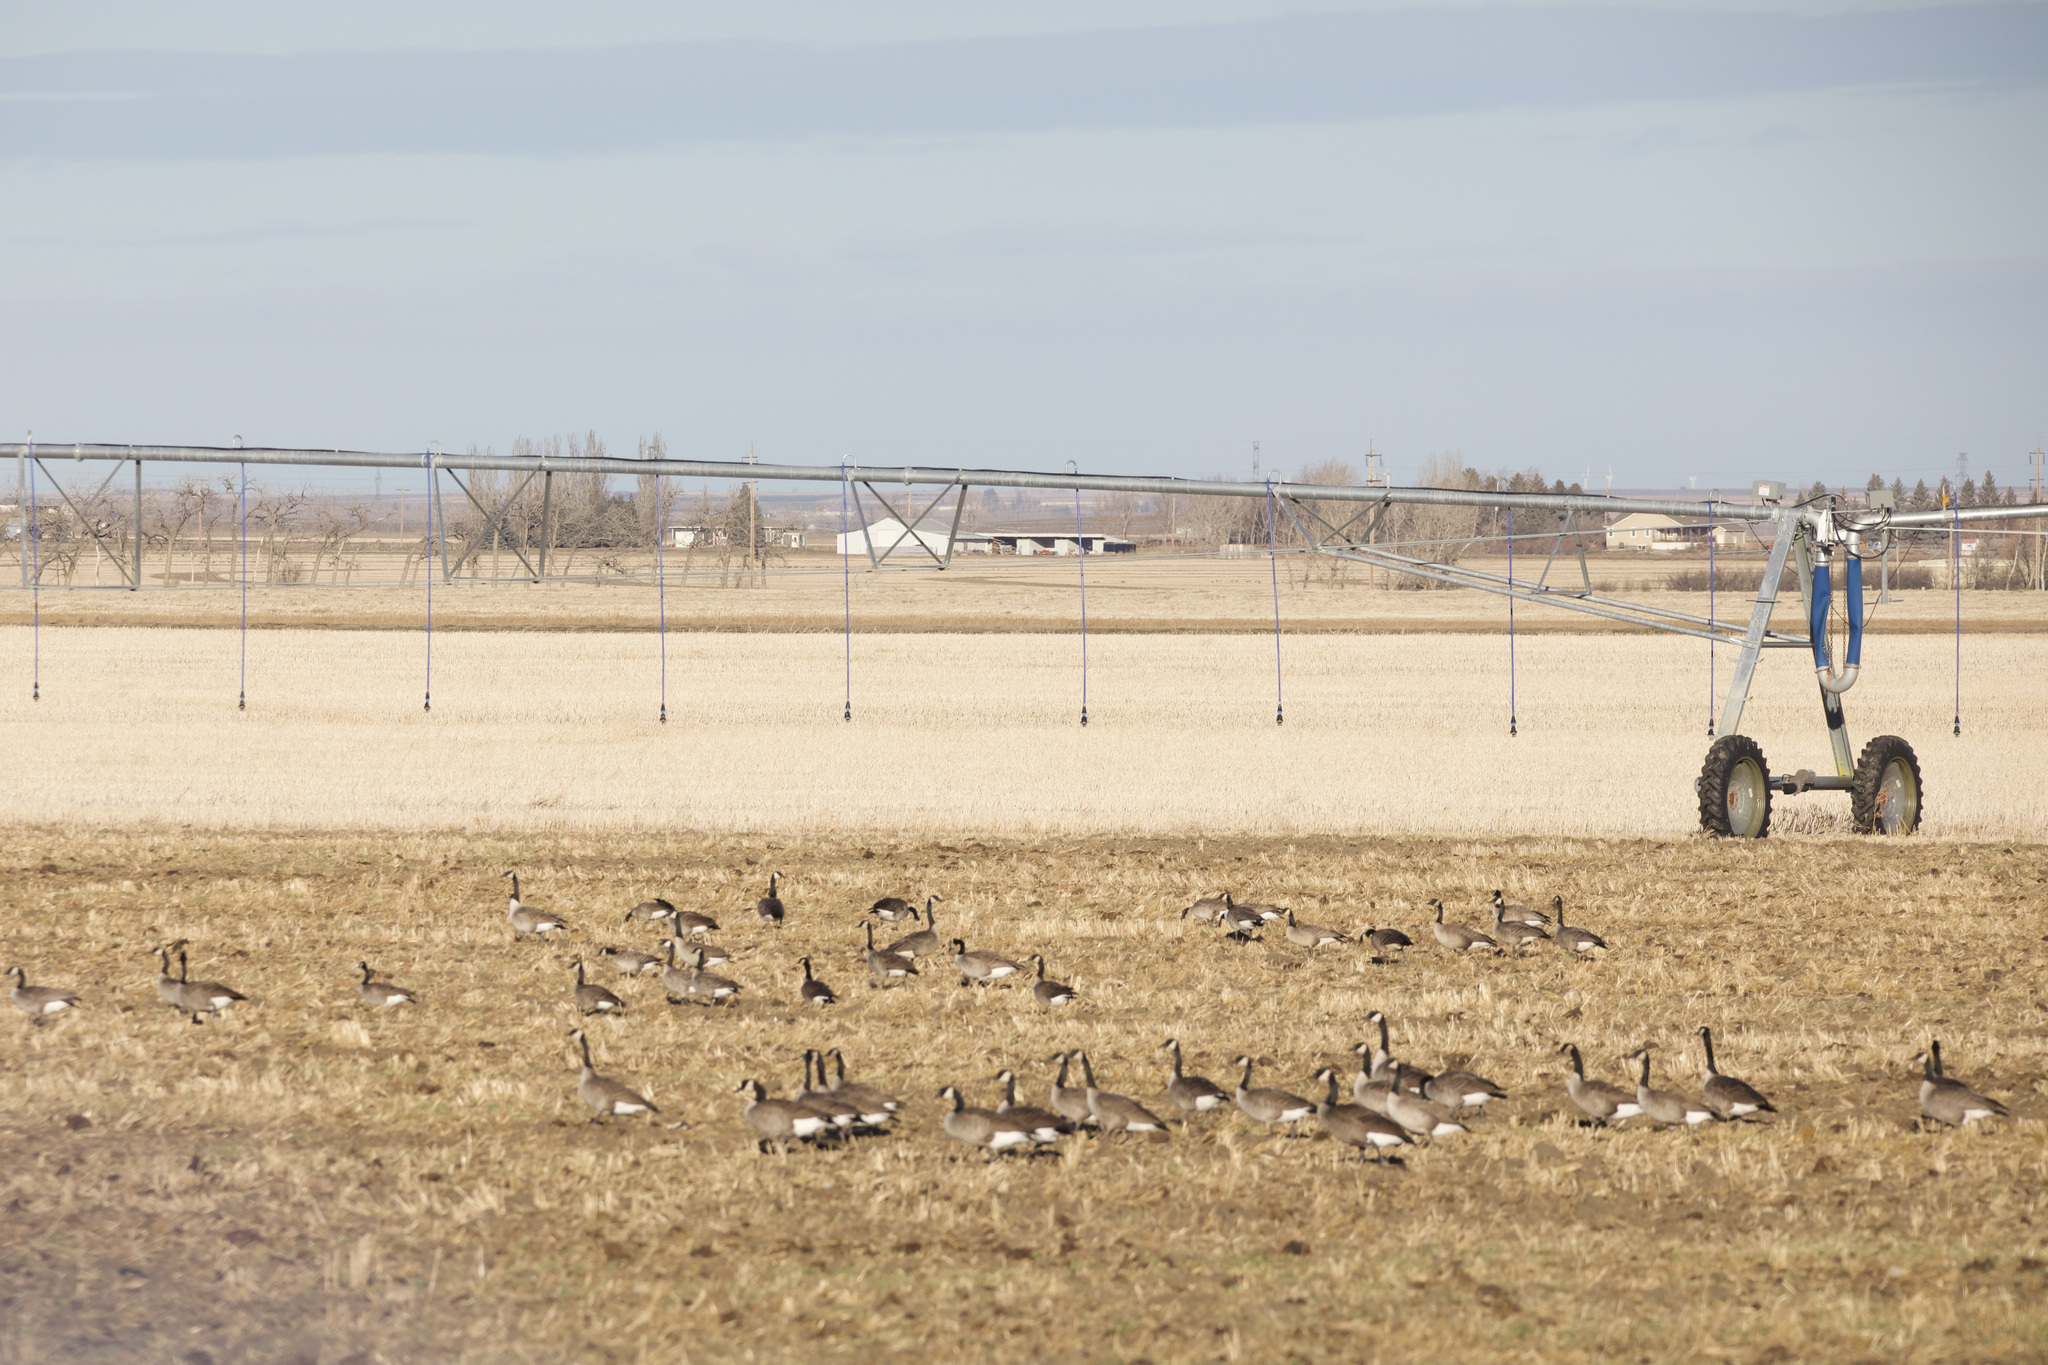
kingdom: Animalia
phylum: Chordata
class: Aves
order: Anseriformes
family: Anatidae
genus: Branta
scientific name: Branta canadensis
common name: Canada goose
